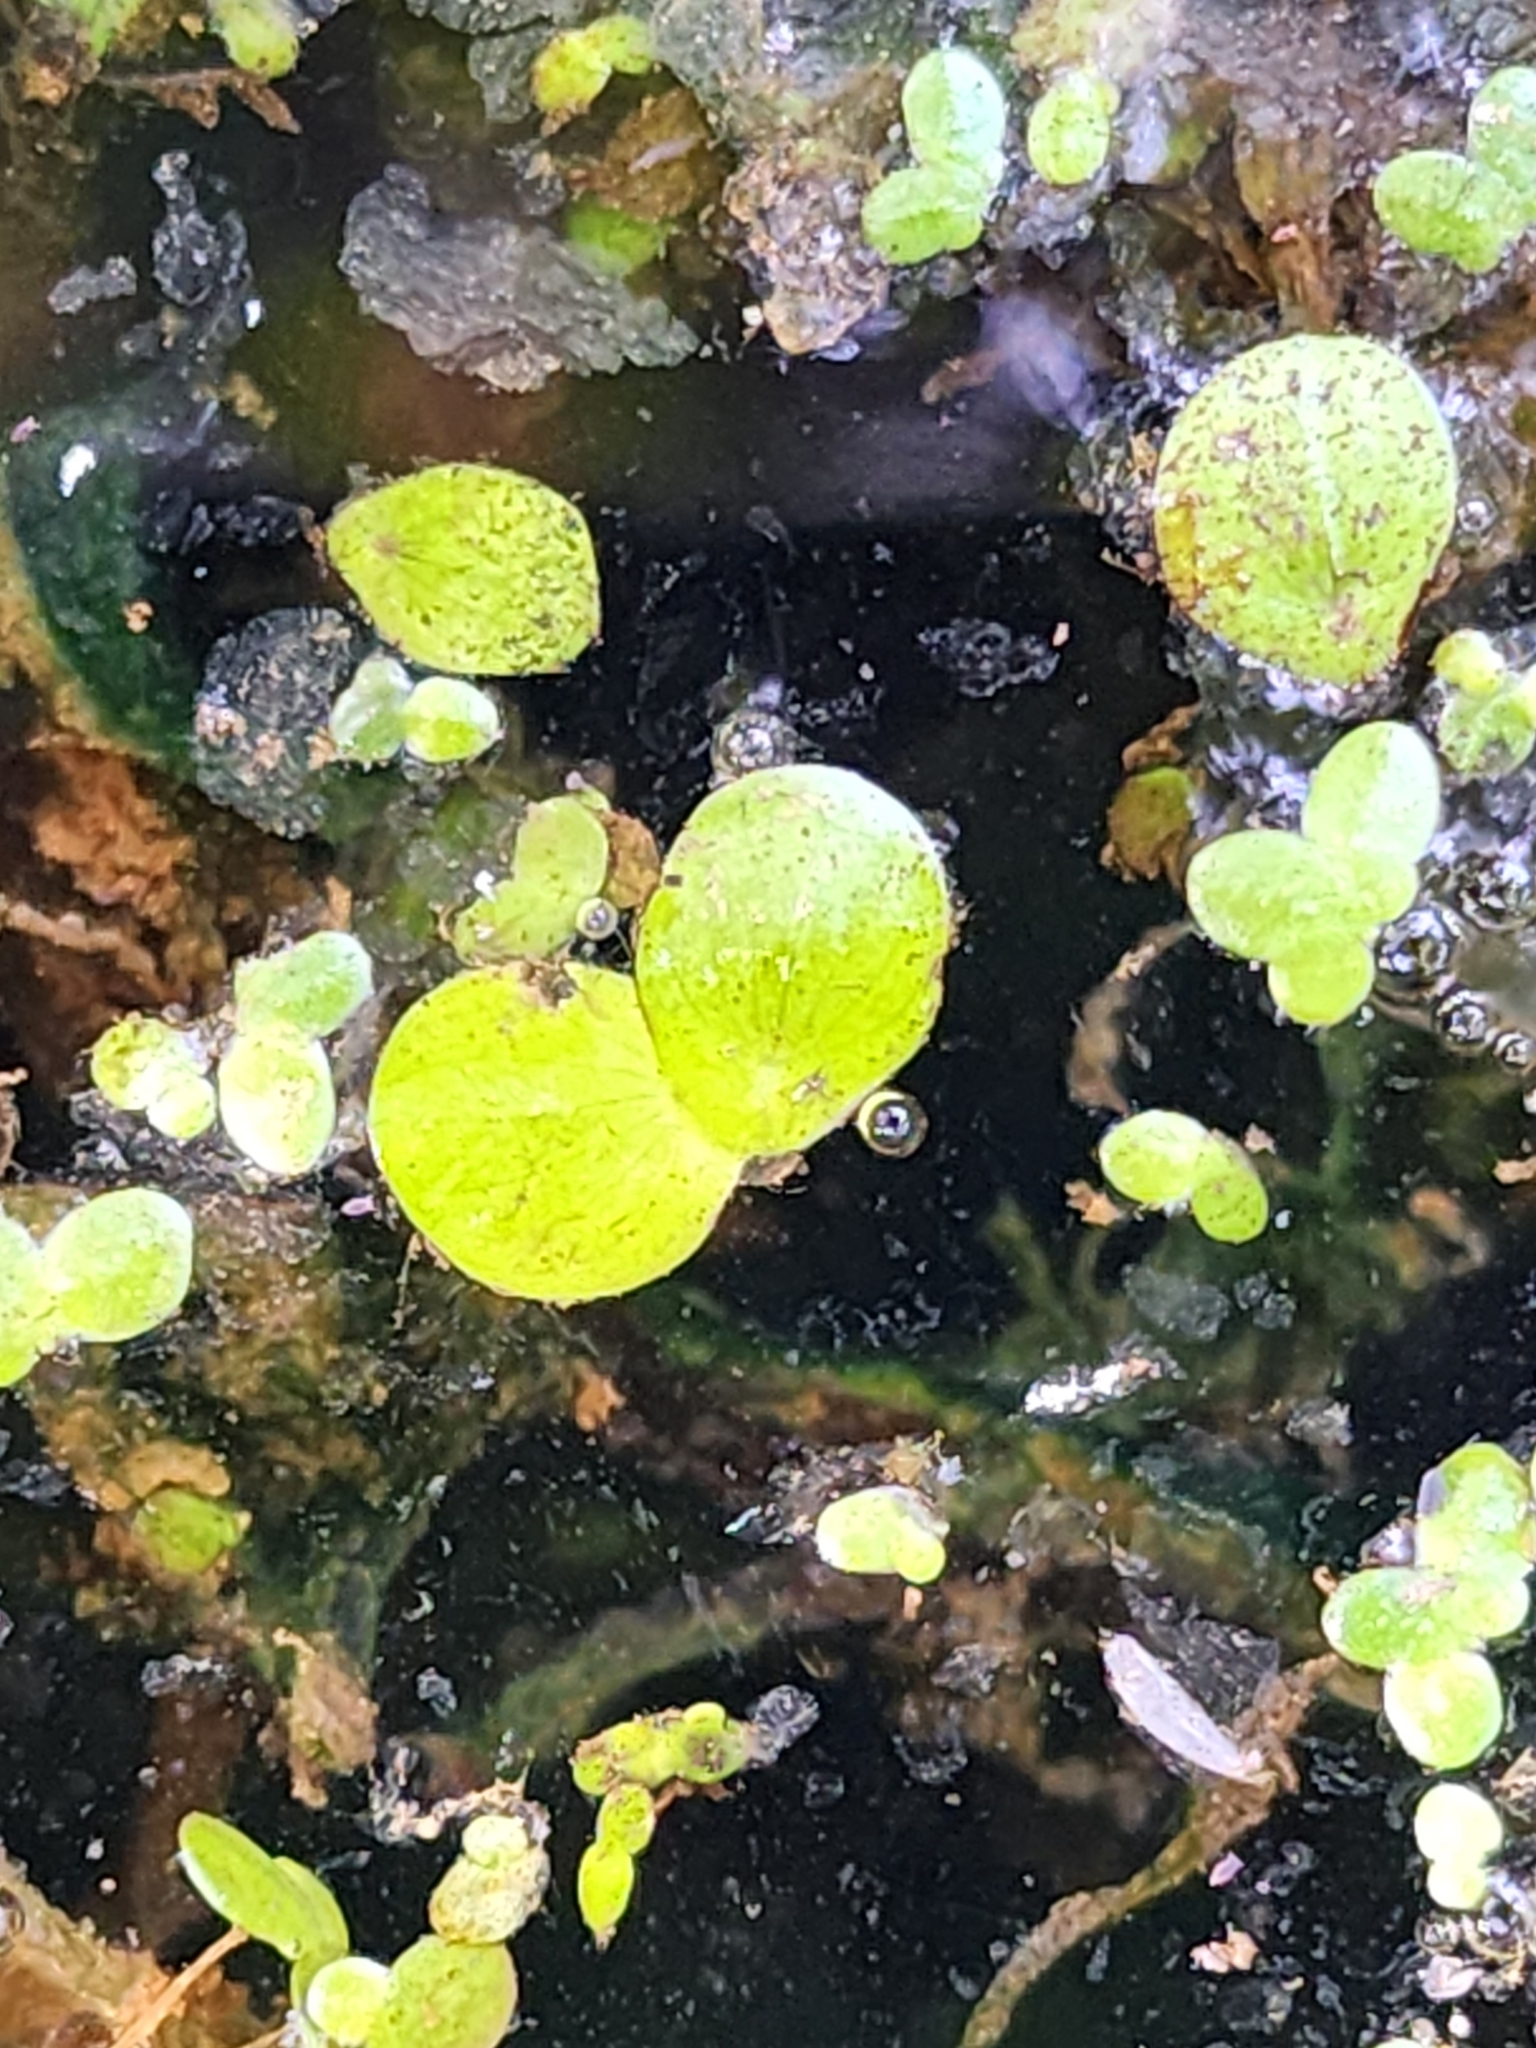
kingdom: Plantae
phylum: Tracheophyta
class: Liliopsida
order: Alismatales
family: Araceae
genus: Spirodela
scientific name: Spirodela polyrhiza
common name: Great duckweed
